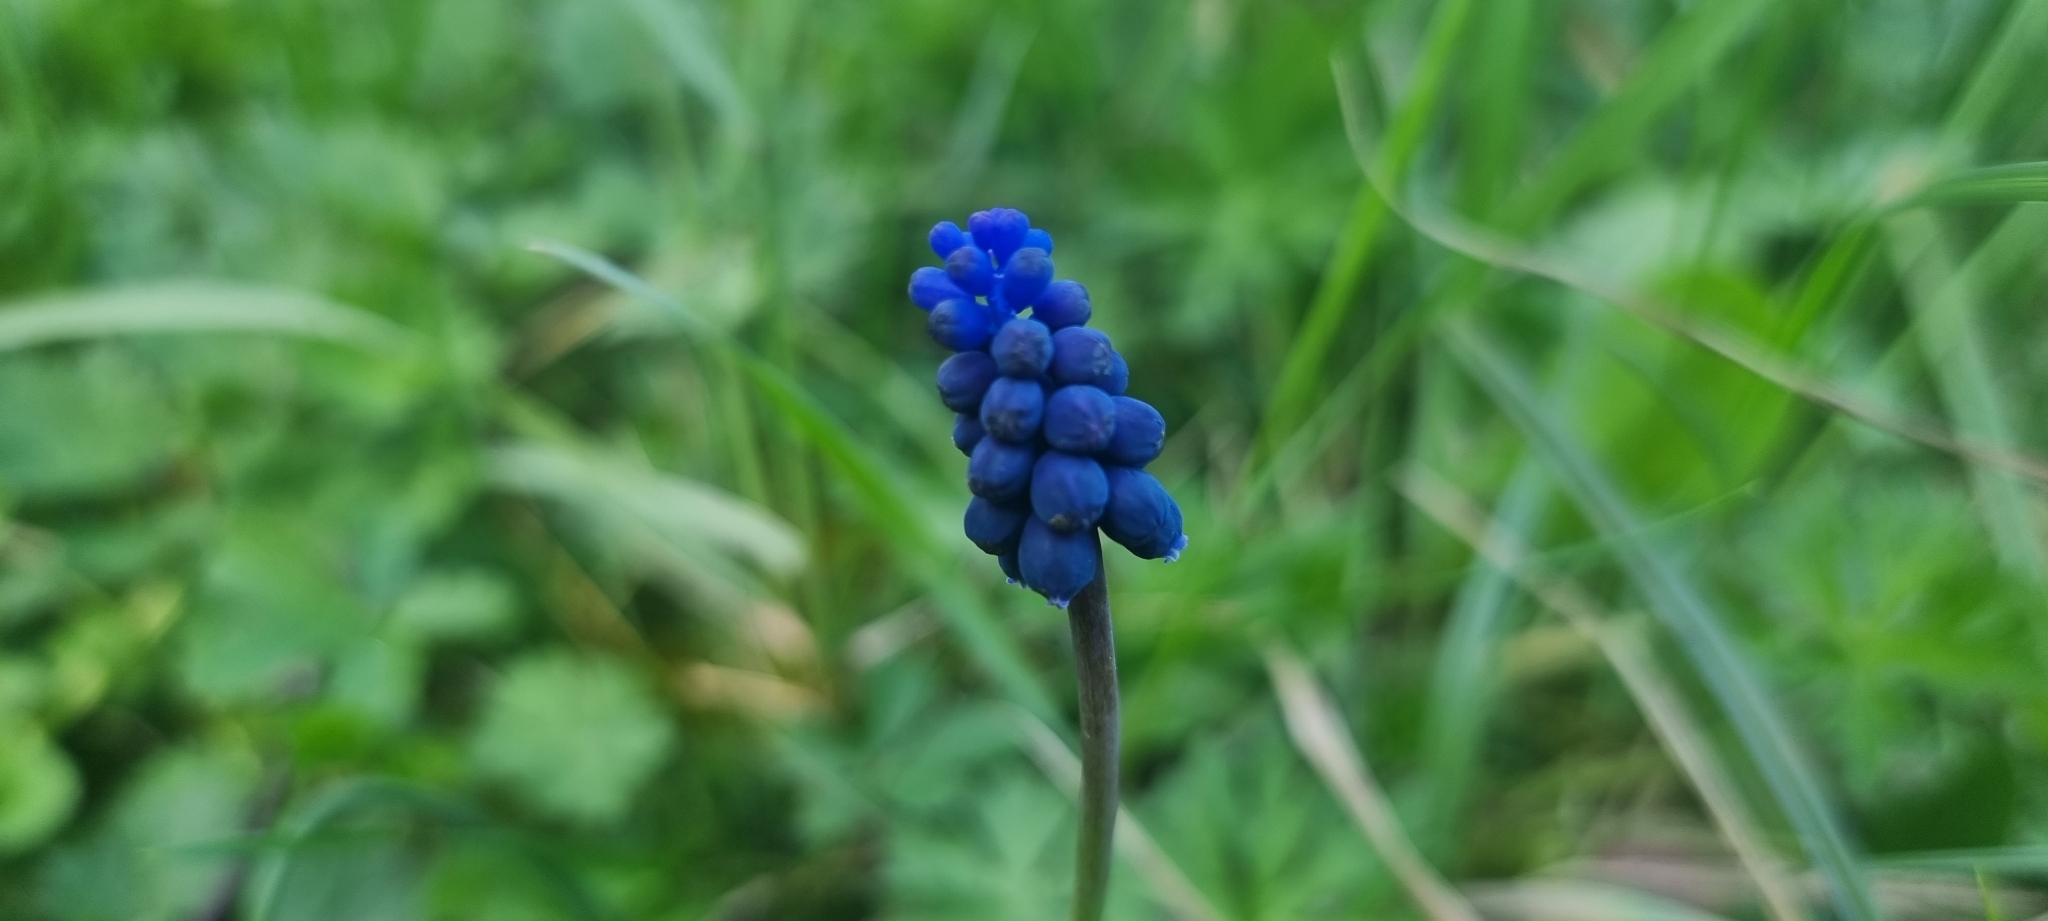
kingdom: Plantae
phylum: Tracheophyta
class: Liliopsida
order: Asparagales
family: Asparagaceae
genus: Muscari
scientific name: Muscari neglectum
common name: Grape-hyacinth
